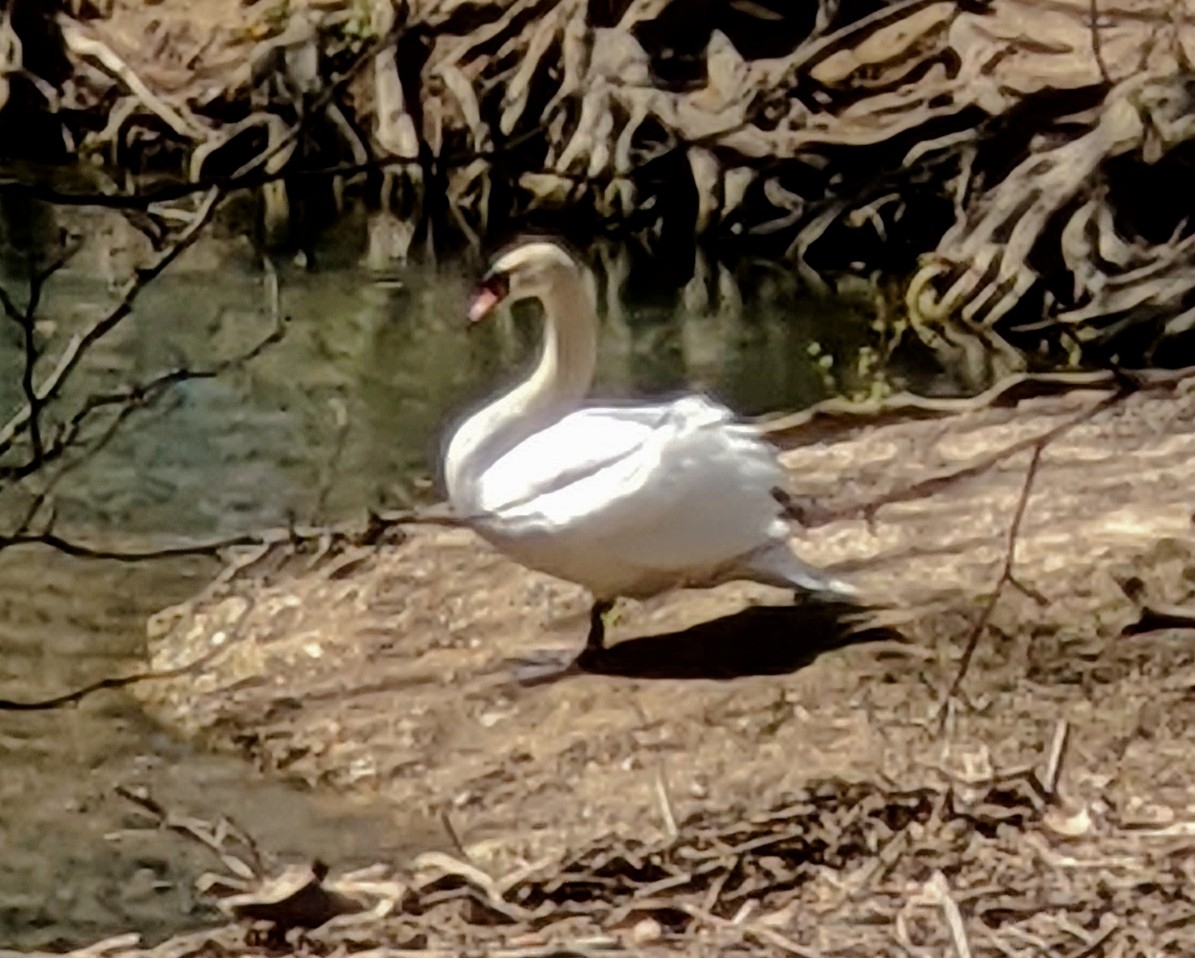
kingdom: Animalia
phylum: Chordata
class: Aves
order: Anseriformes
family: Anatidae
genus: Cygnus
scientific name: Cygnus olor
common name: Mute swan
